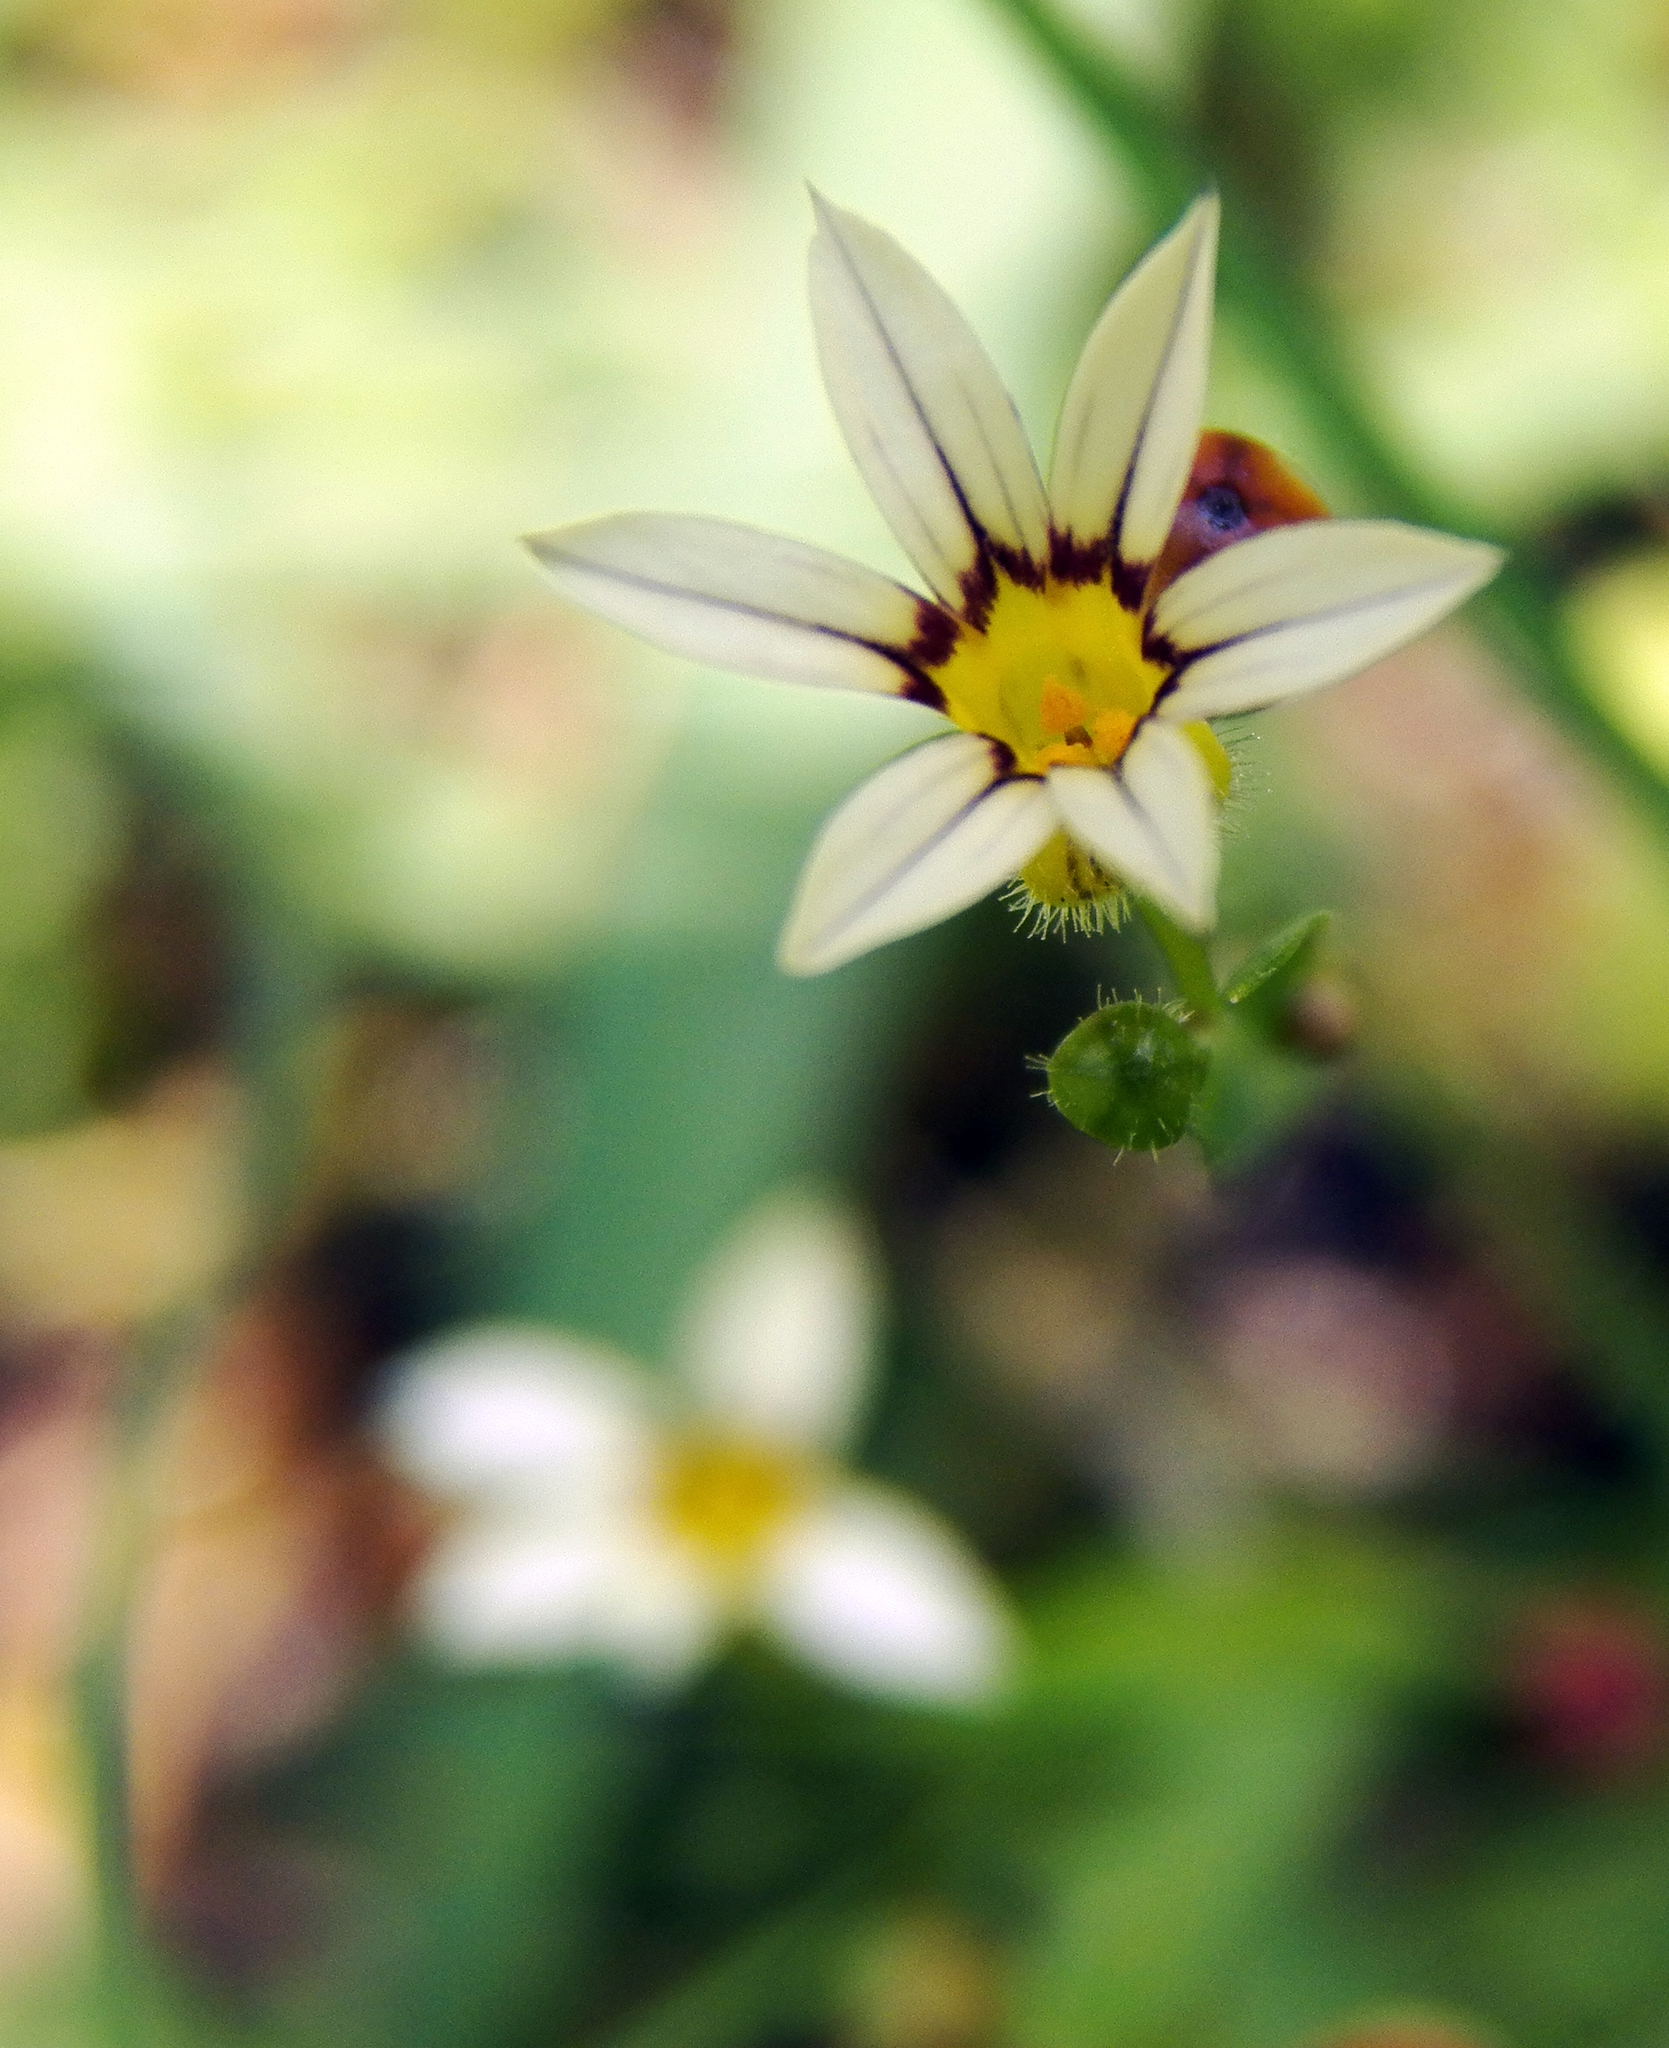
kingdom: Plantae
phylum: Tracheophyta
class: Liliopsida
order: Asparagales
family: Iridaceae
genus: Sisyrinchium
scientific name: Sisyrinchium micranthum
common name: Bermuda pigroot
